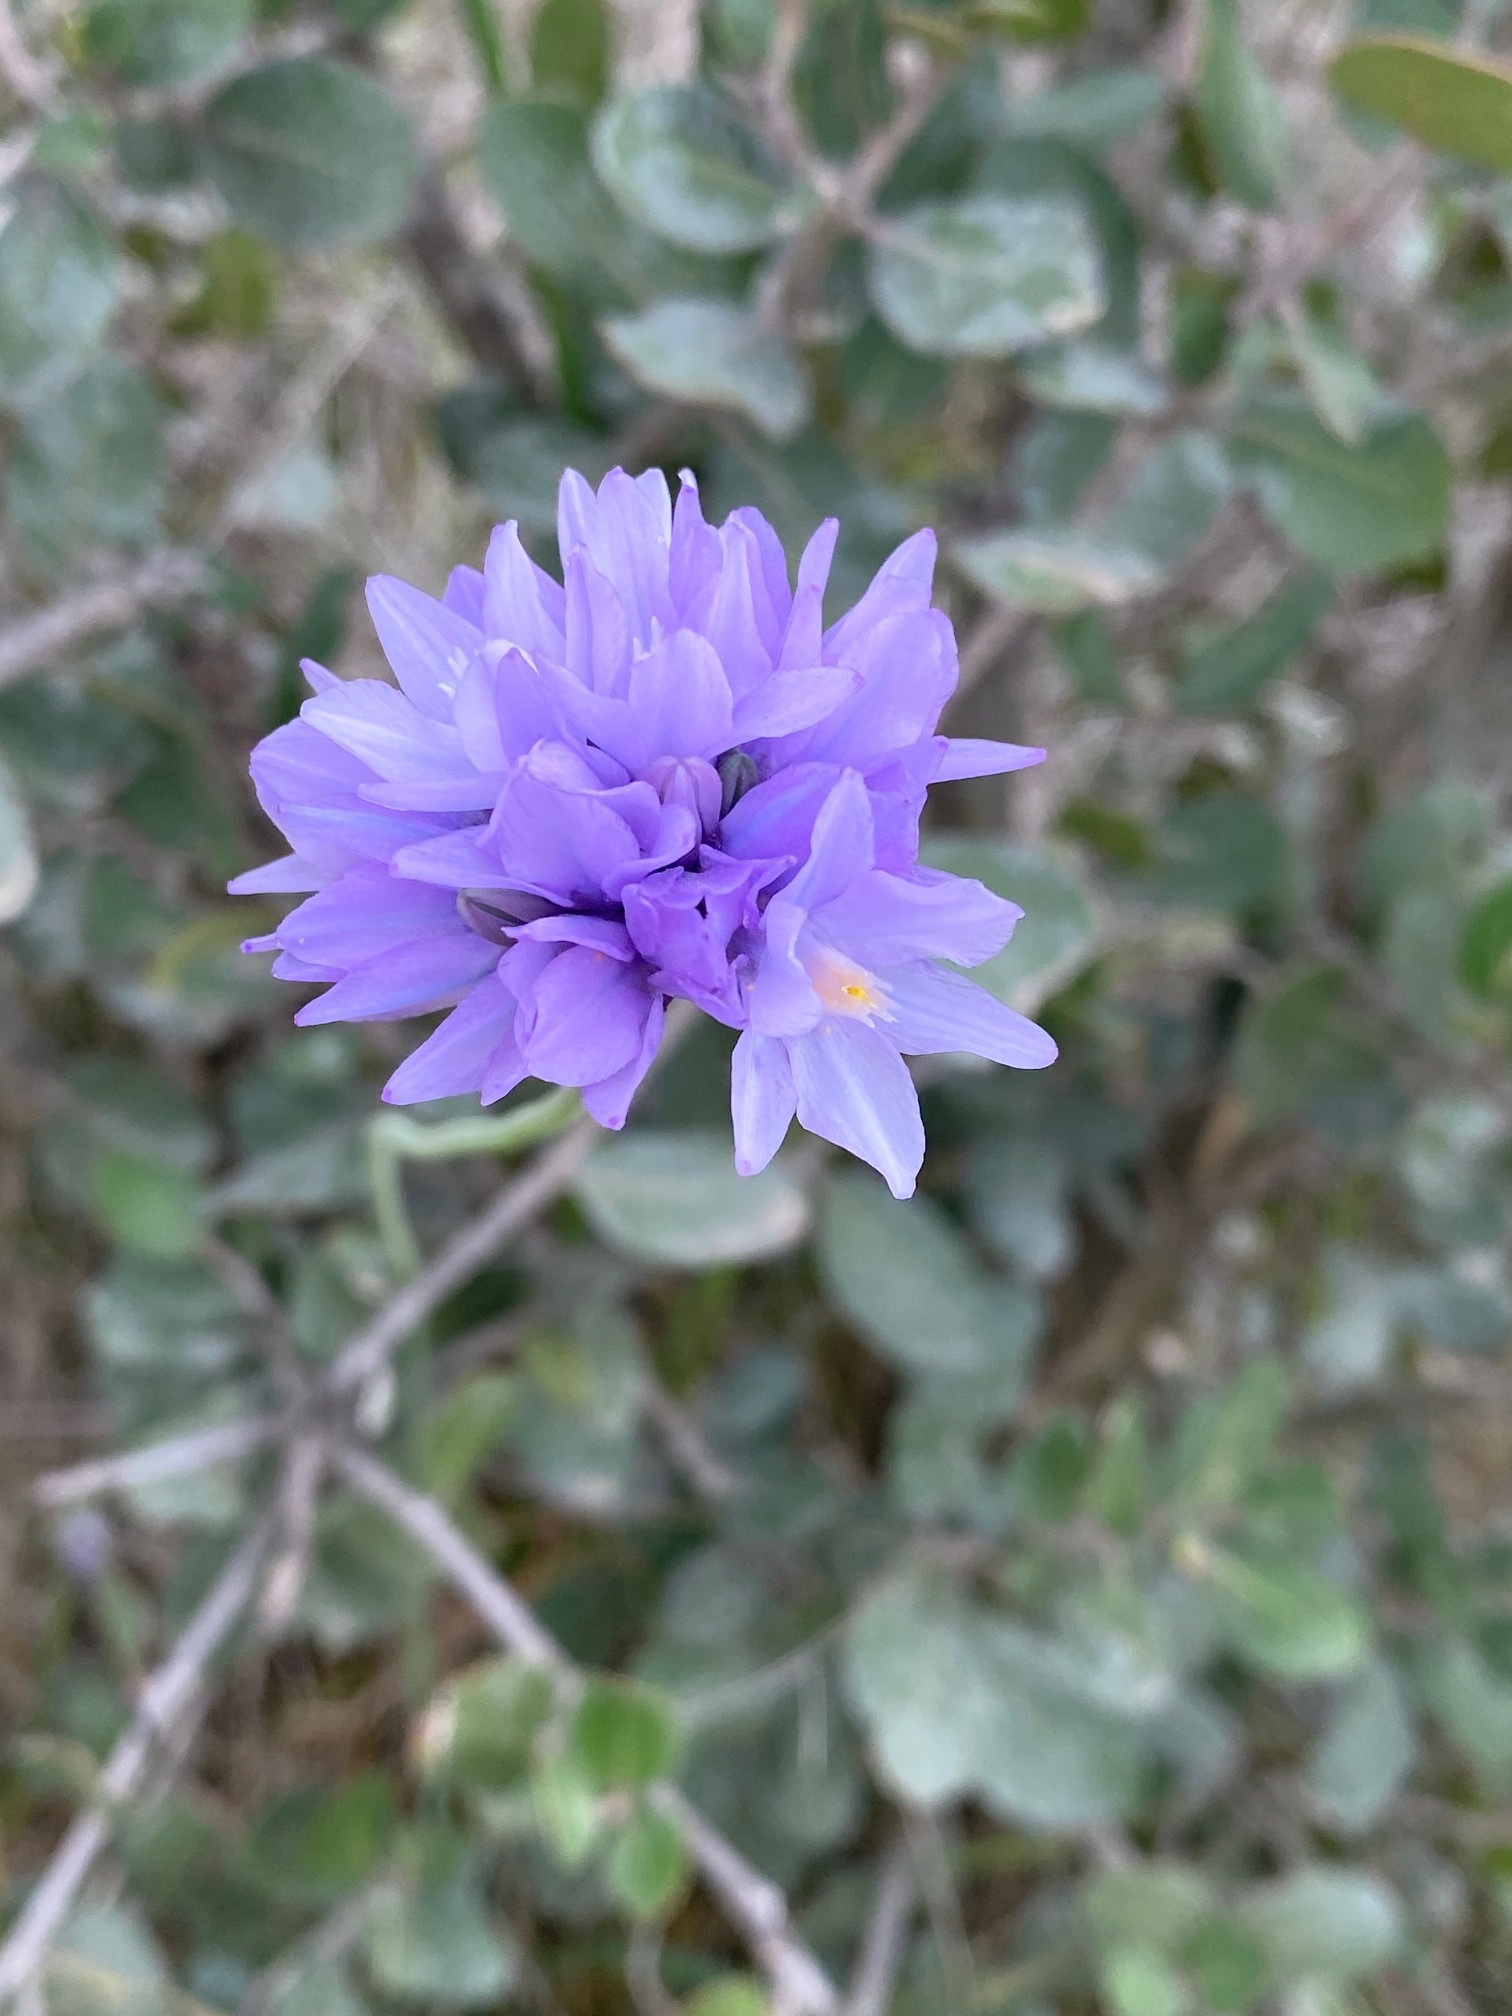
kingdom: Plantae
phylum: Tracheophyta
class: Liliopsida
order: Asparagales
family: Asparagaceae
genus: Dipterostemon
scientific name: Dipterostemon capitatus
